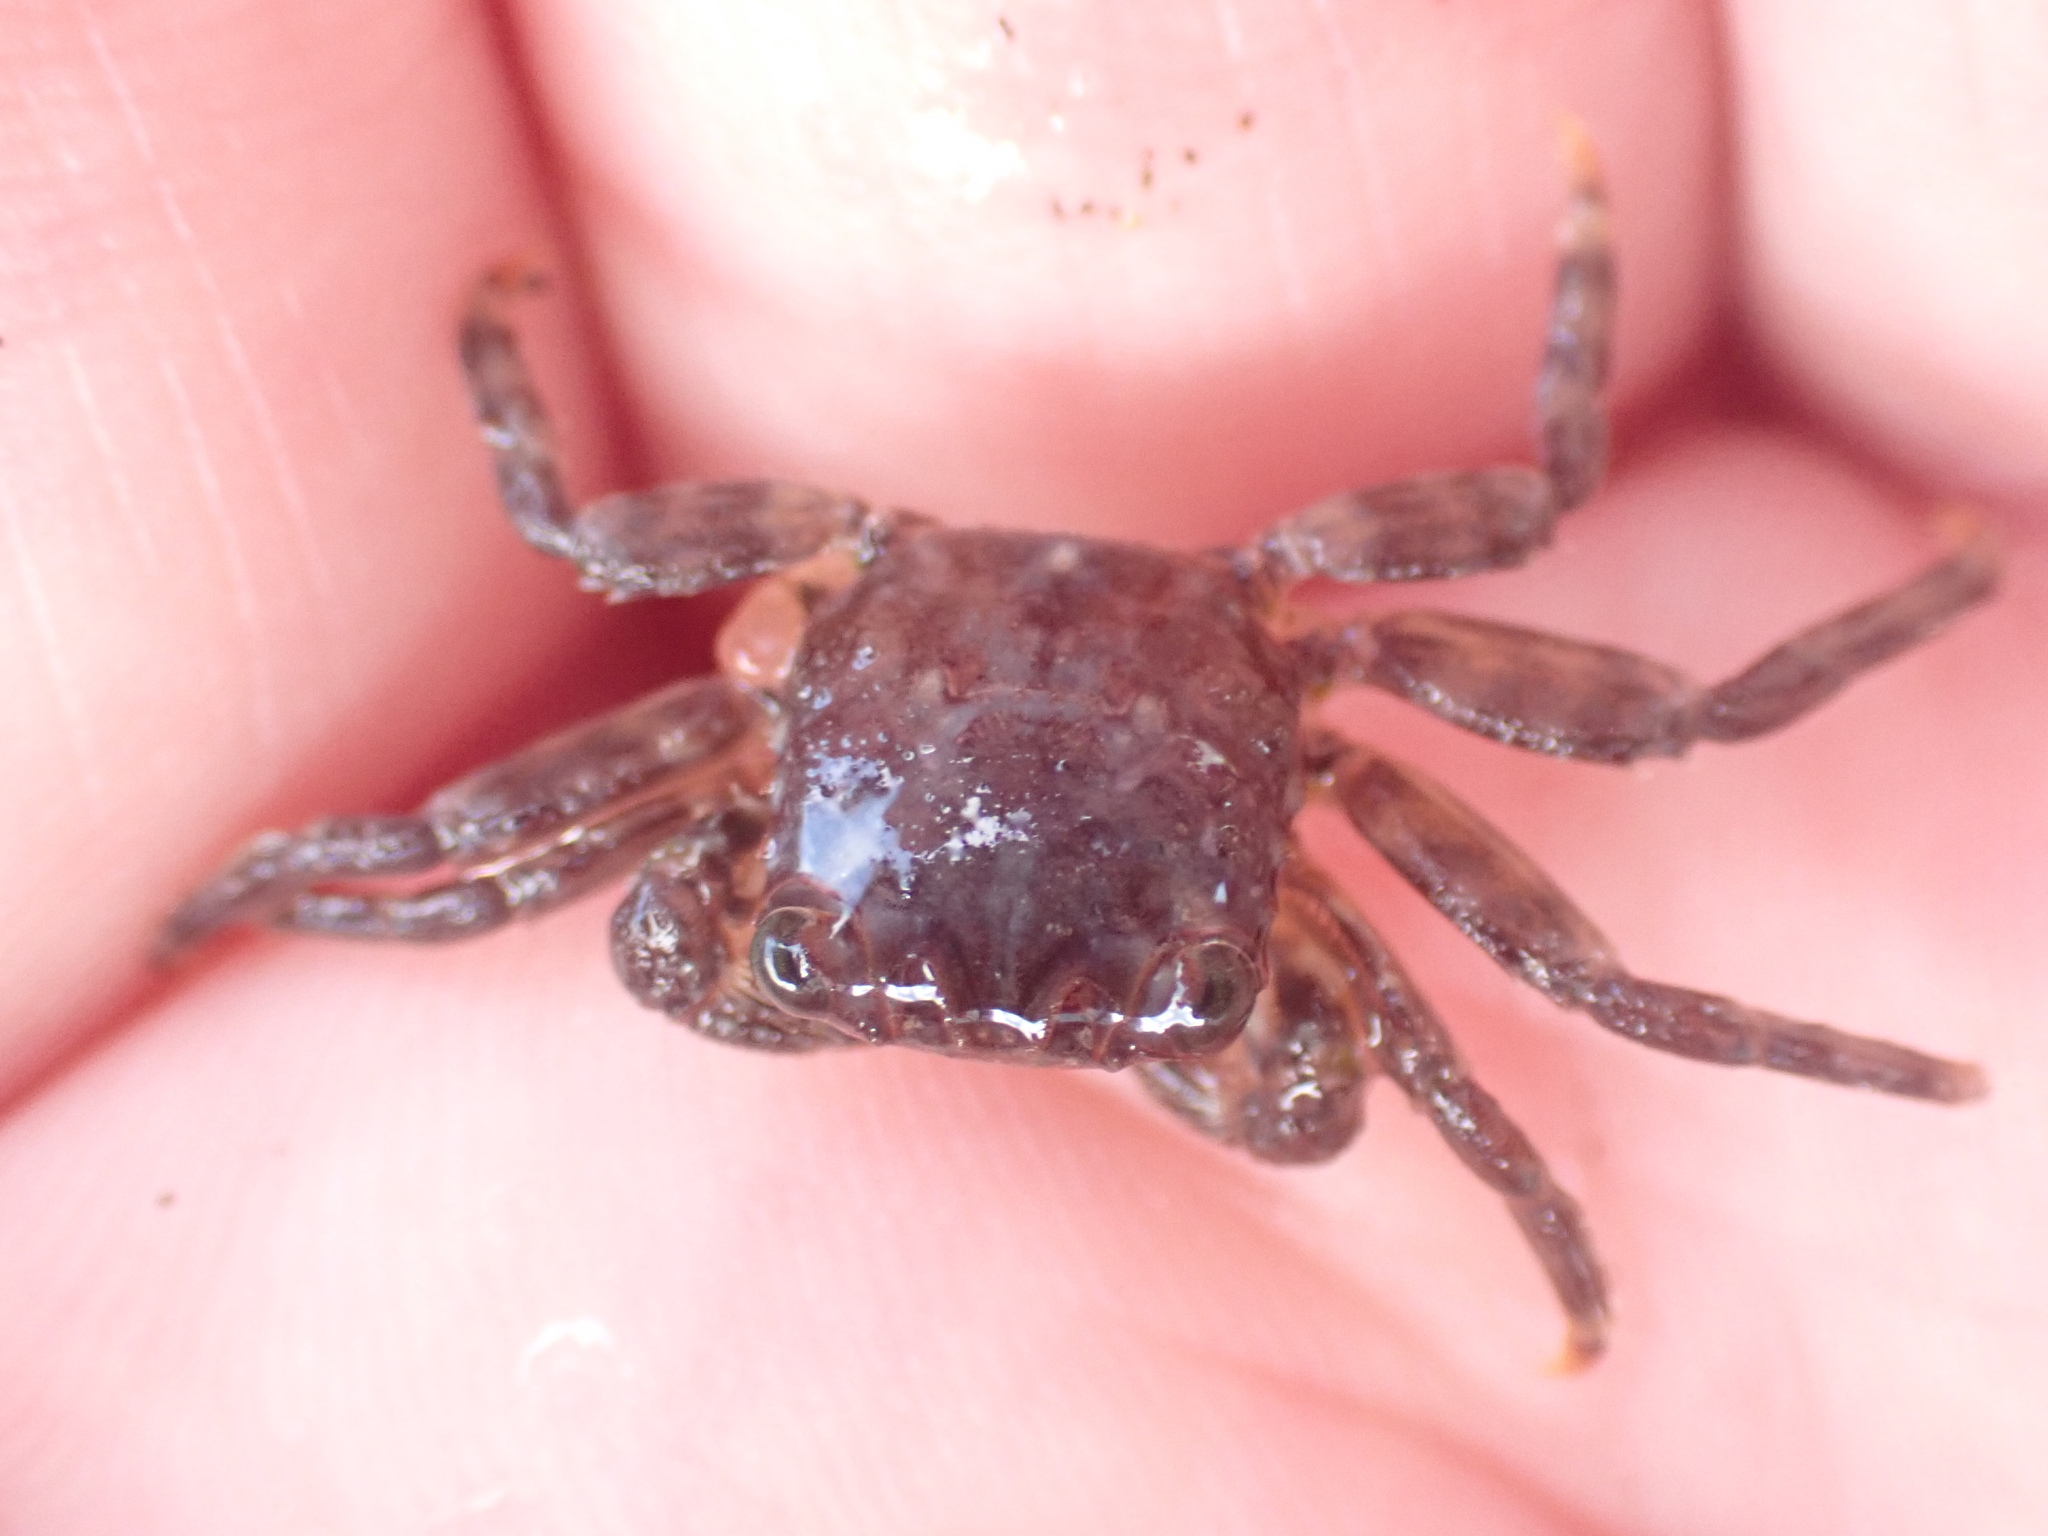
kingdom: Animalia
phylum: Arthropoda
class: Malacostraca
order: Decapoda
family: Plagusiidae
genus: Guinusia
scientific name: Guinusia chabrus
